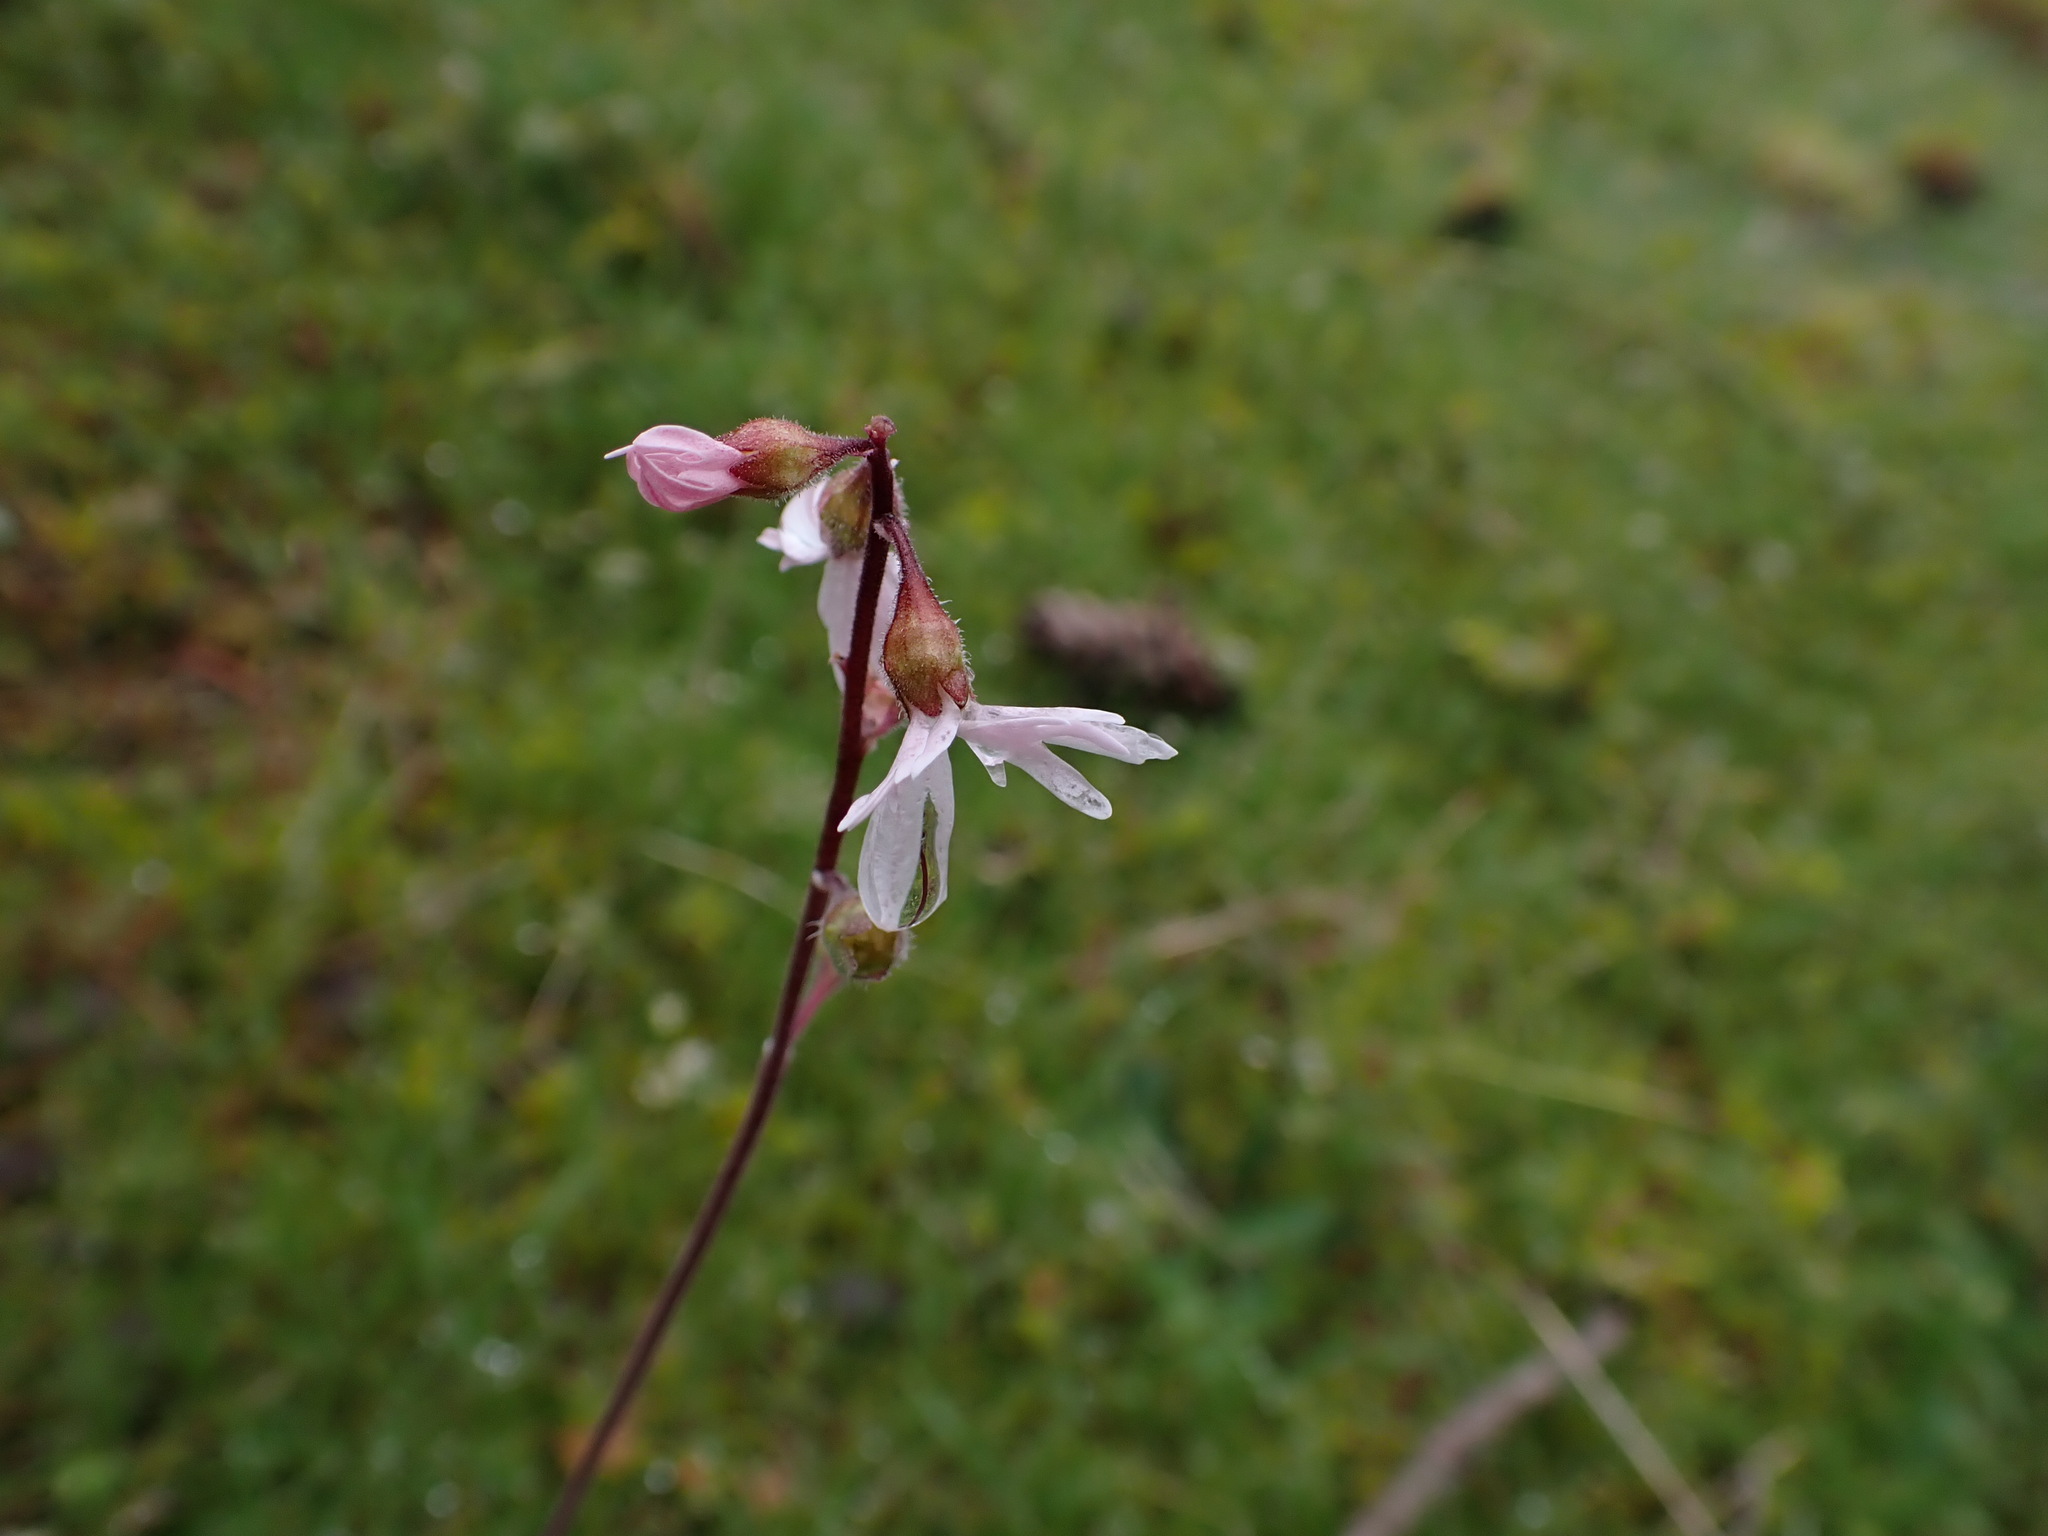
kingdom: Plantae
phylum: Tracheophyta
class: Magnoliopsida
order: Saxifragales
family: Saxifragaceae
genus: Lithophragma
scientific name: Lithophragma parviflorum
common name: Small-flowered fringe-cup
